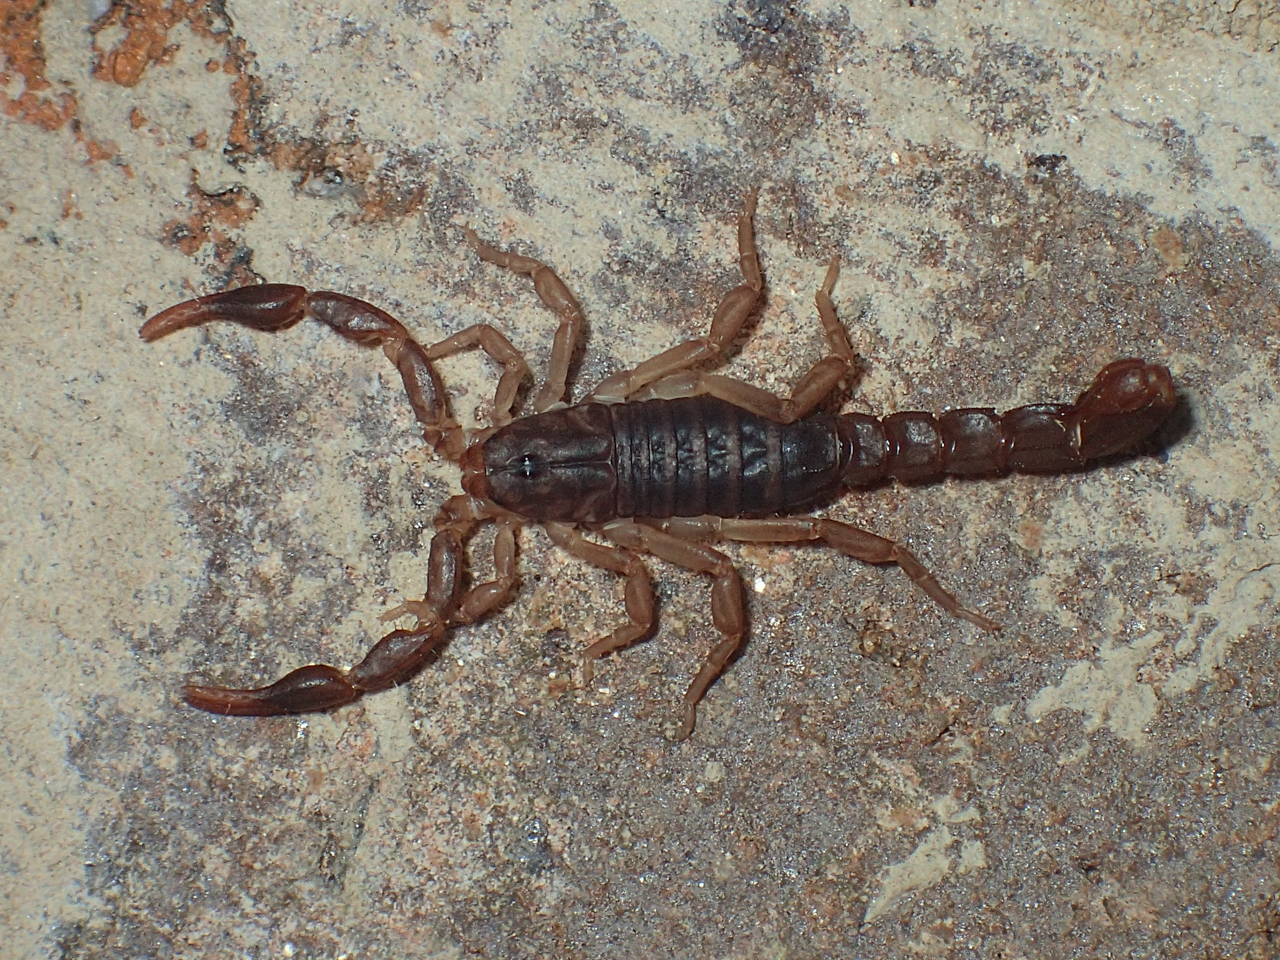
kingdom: Animalia
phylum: Arthropoda
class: Arachnida
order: Scorpiones
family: Vaejovidae
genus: Vaejovis
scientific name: Vaejovis carolinianus
